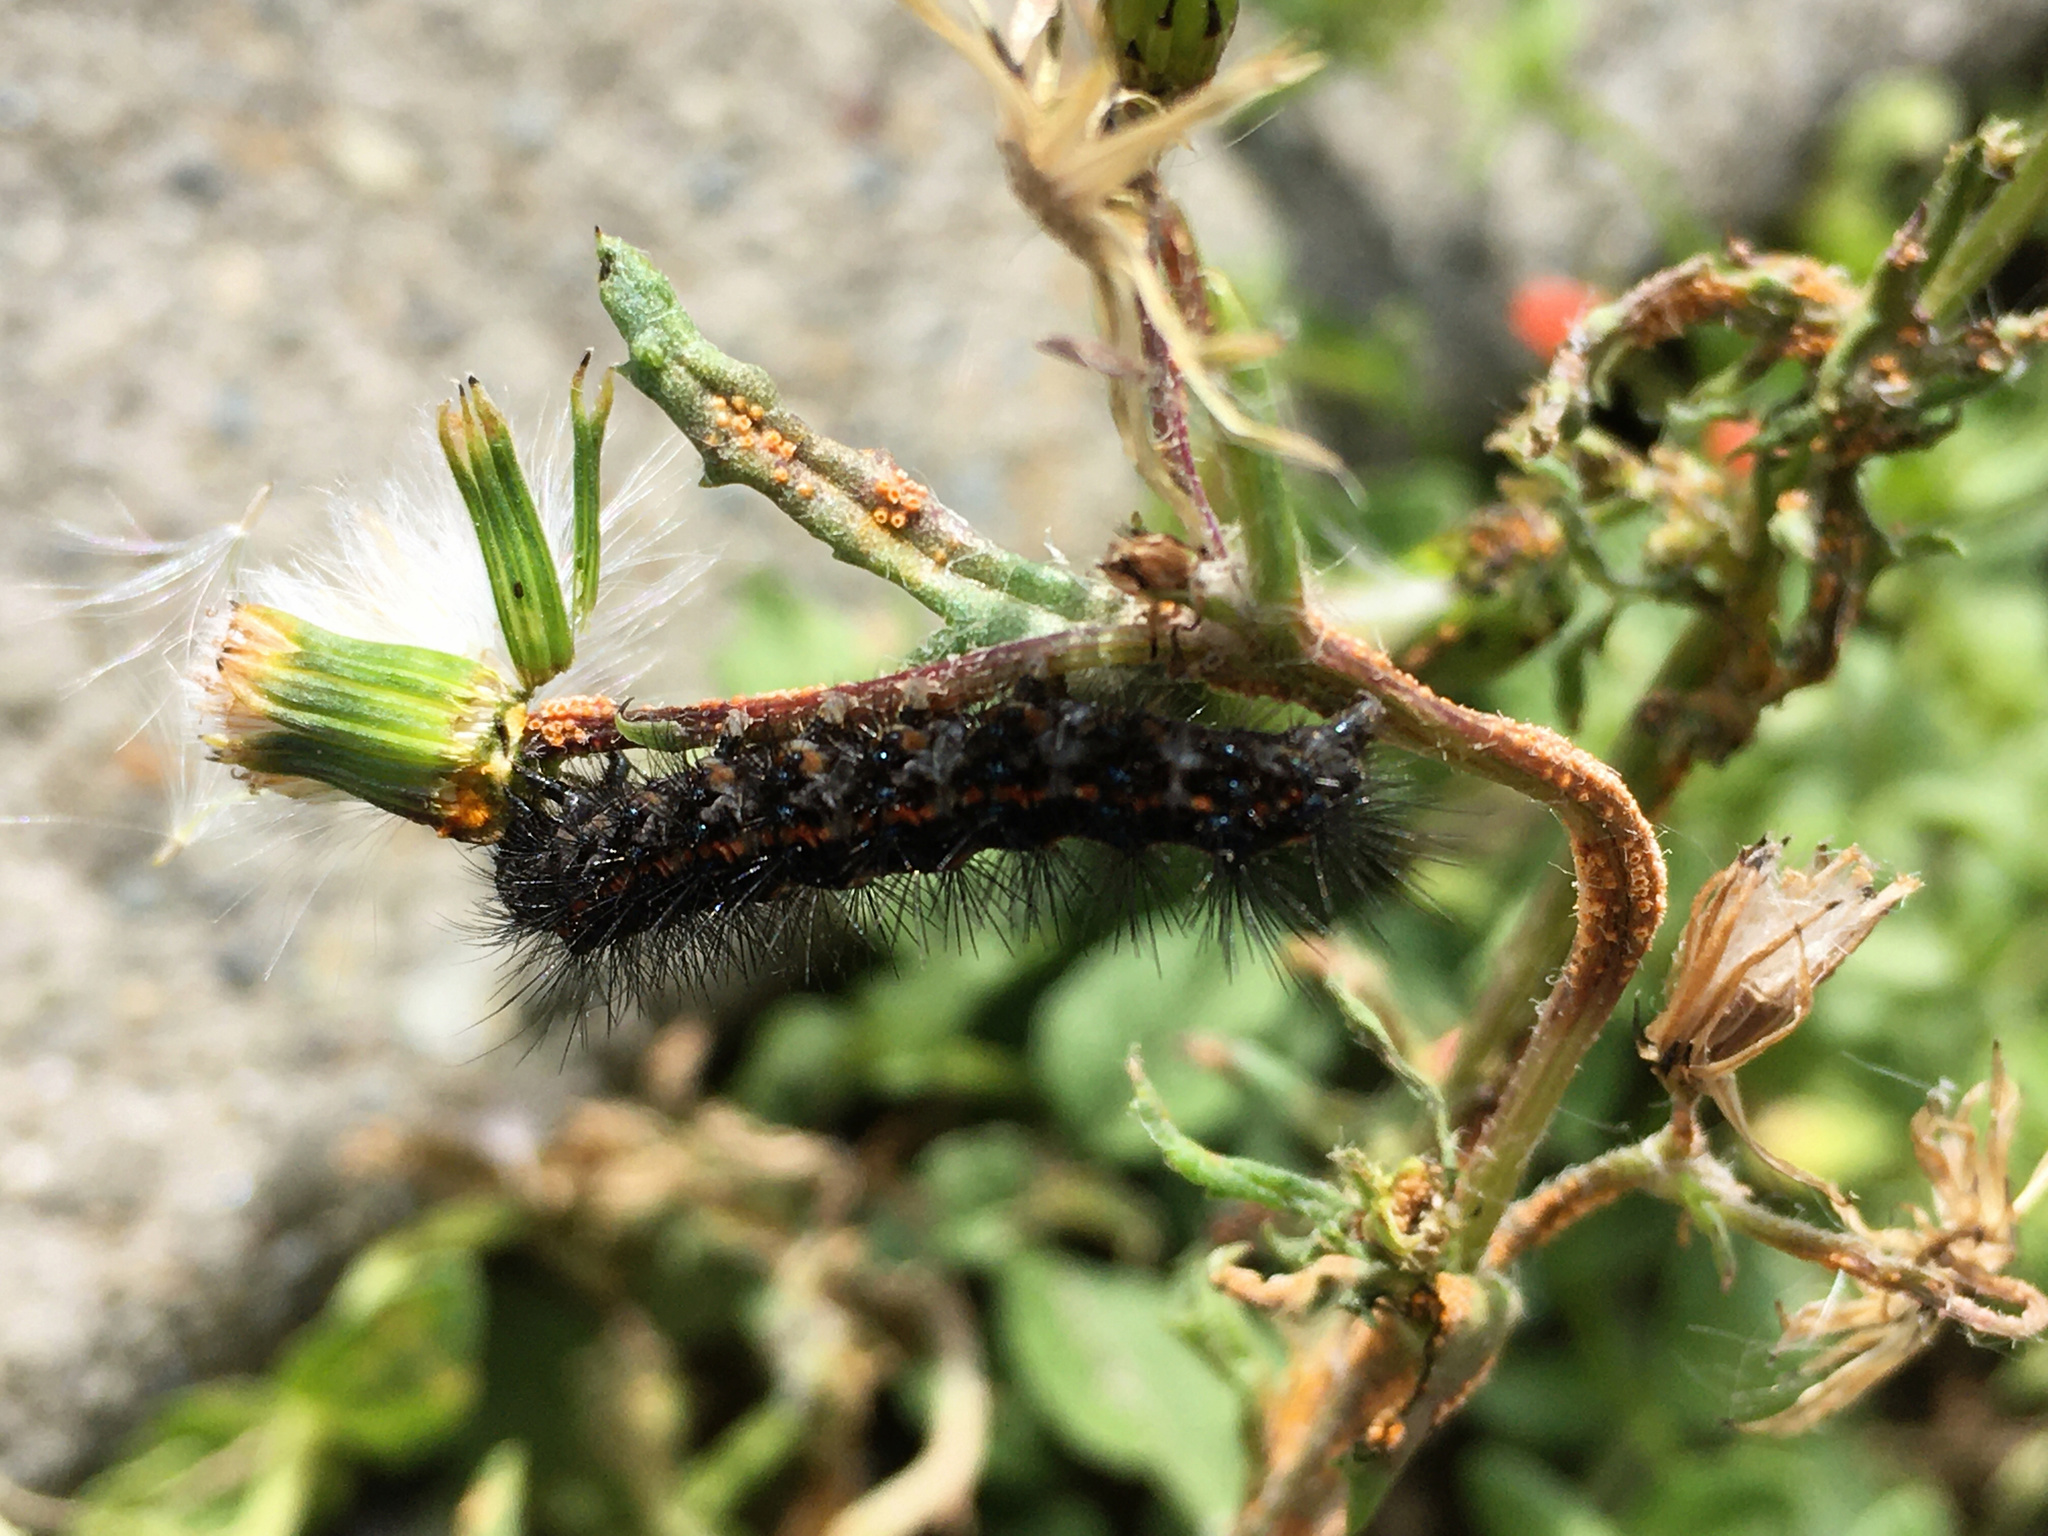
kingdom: Animalia
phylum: Arthropoda
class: Insecta
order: Lepidoptera
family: Erebidae
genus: Nyctemera
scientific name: Nyctemera annulatum
